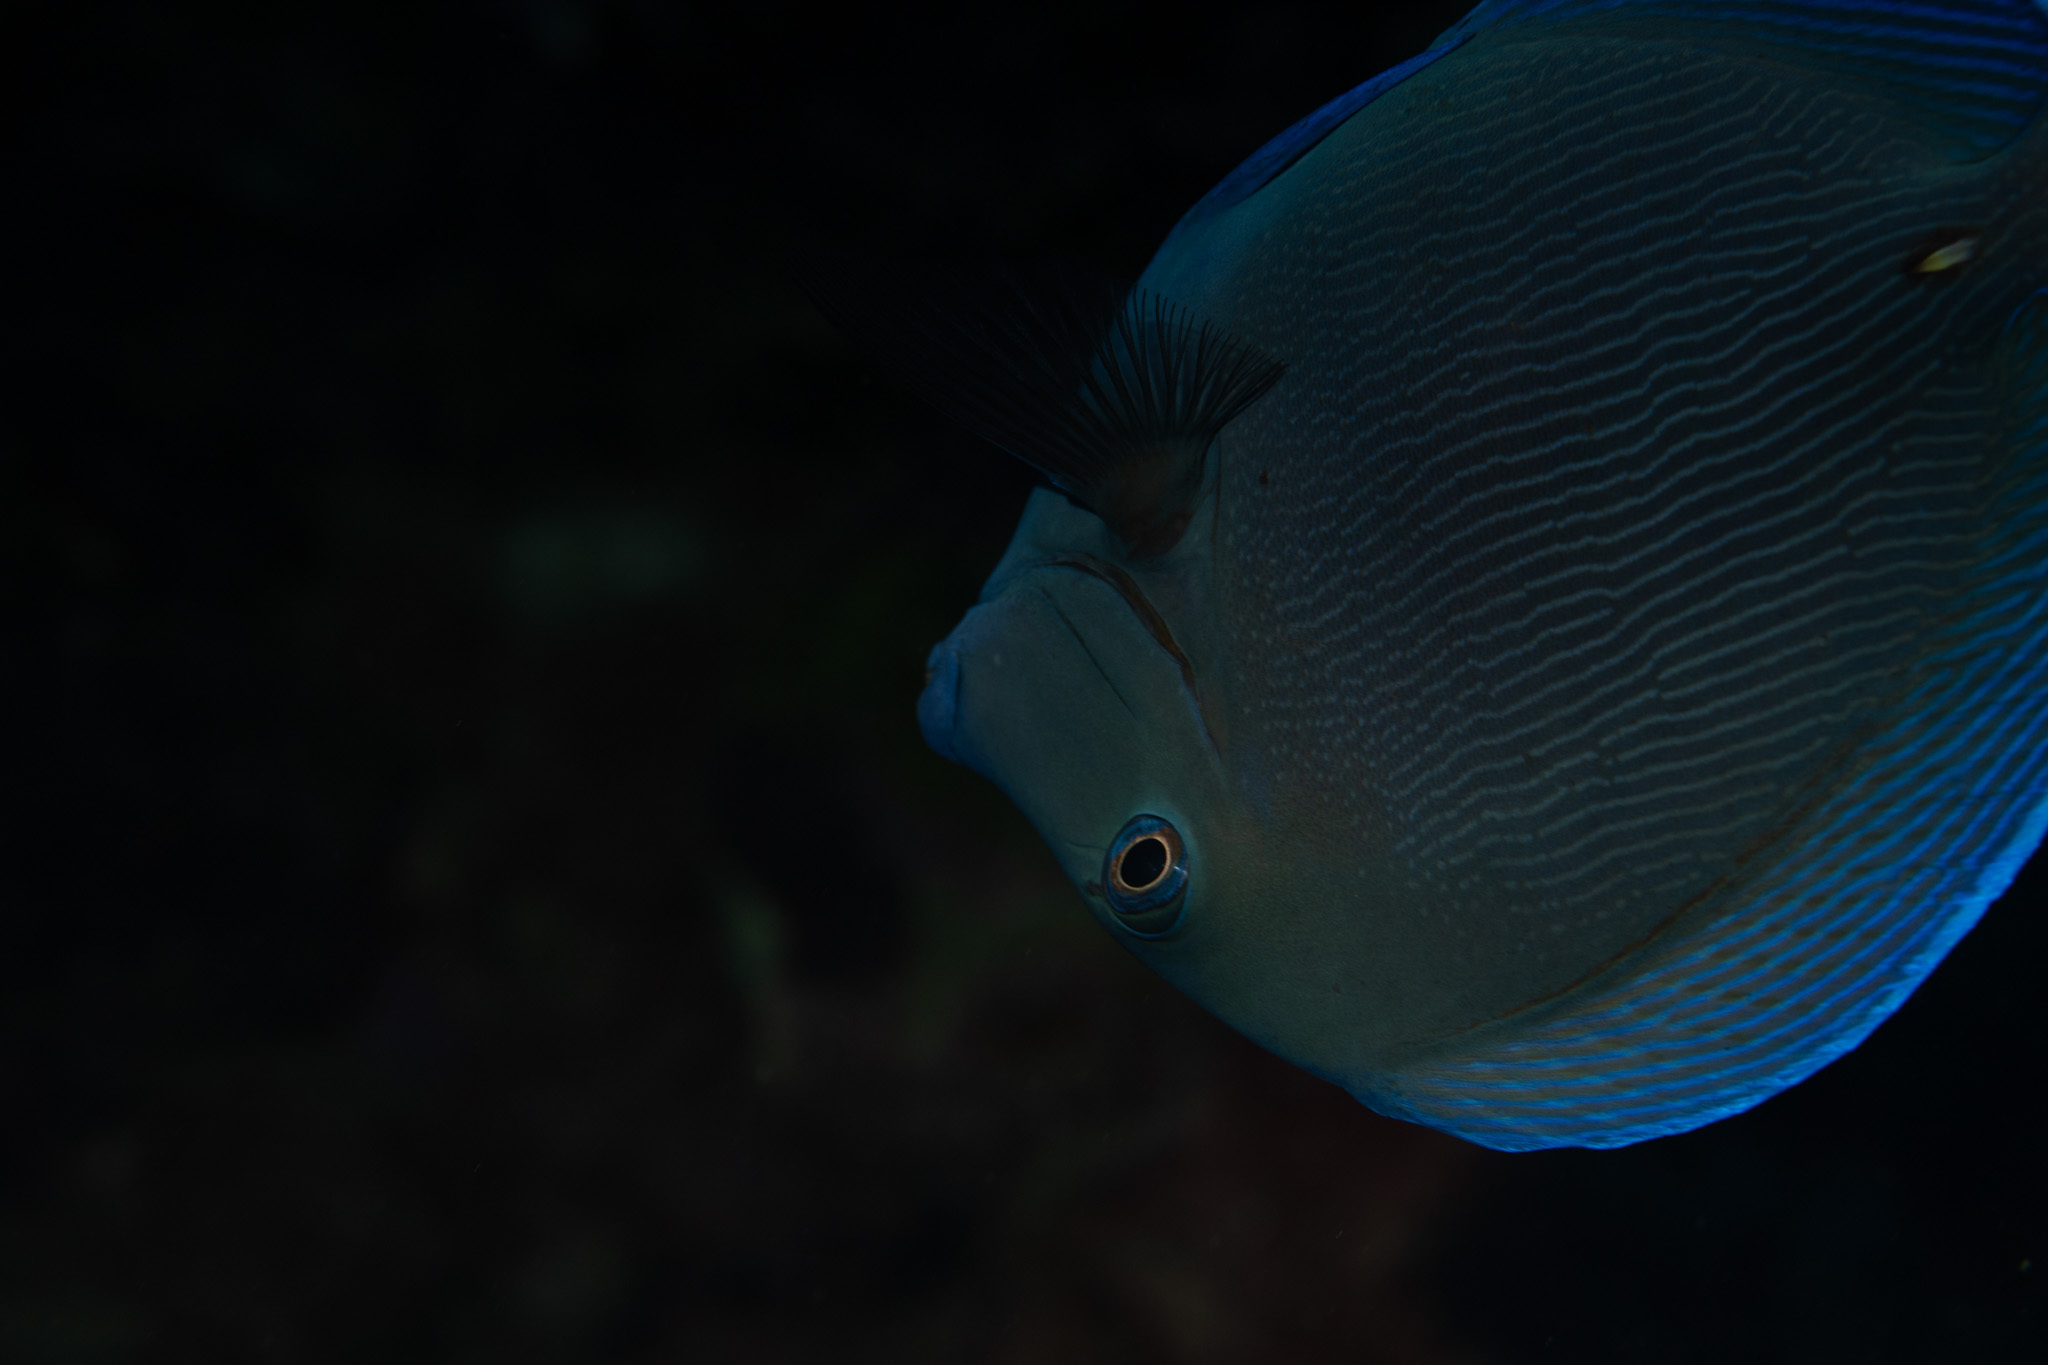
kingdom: Animalia
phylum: Chordata
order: Perciformes
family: Acanthuridae
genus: Acanthurus
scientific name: Acanthurus coeruleus
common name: Blue tang
